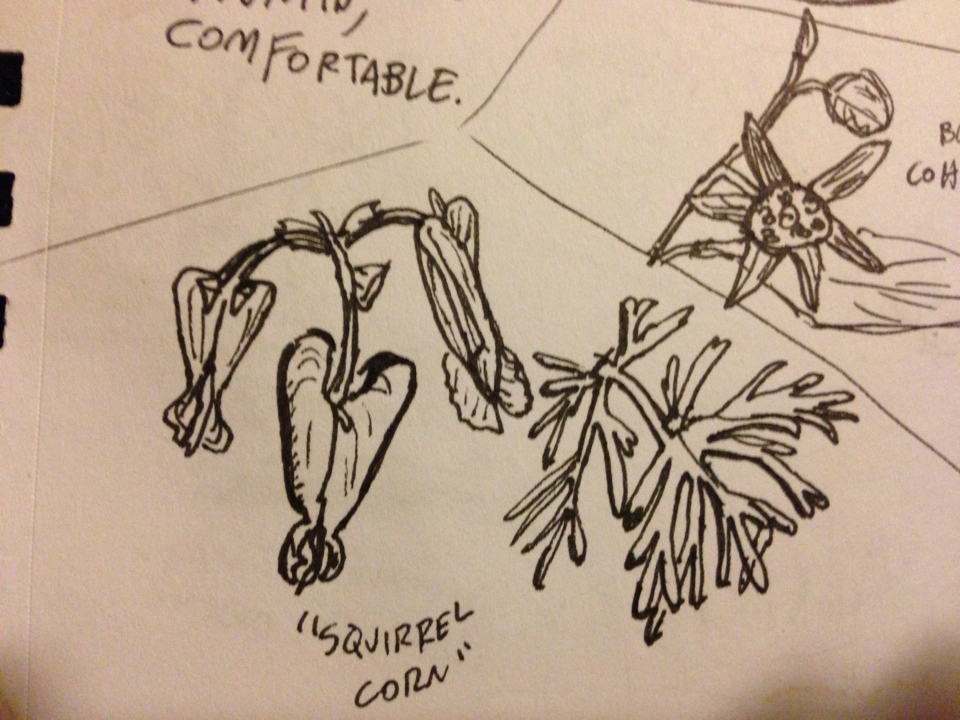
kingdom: Plantae
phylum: Tracheophyta
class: Magnoliopsida
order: Ranunculales
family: Papaveraceae
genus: Dicentra
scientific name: Dicentra canadensis
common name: Squirrel-corn
